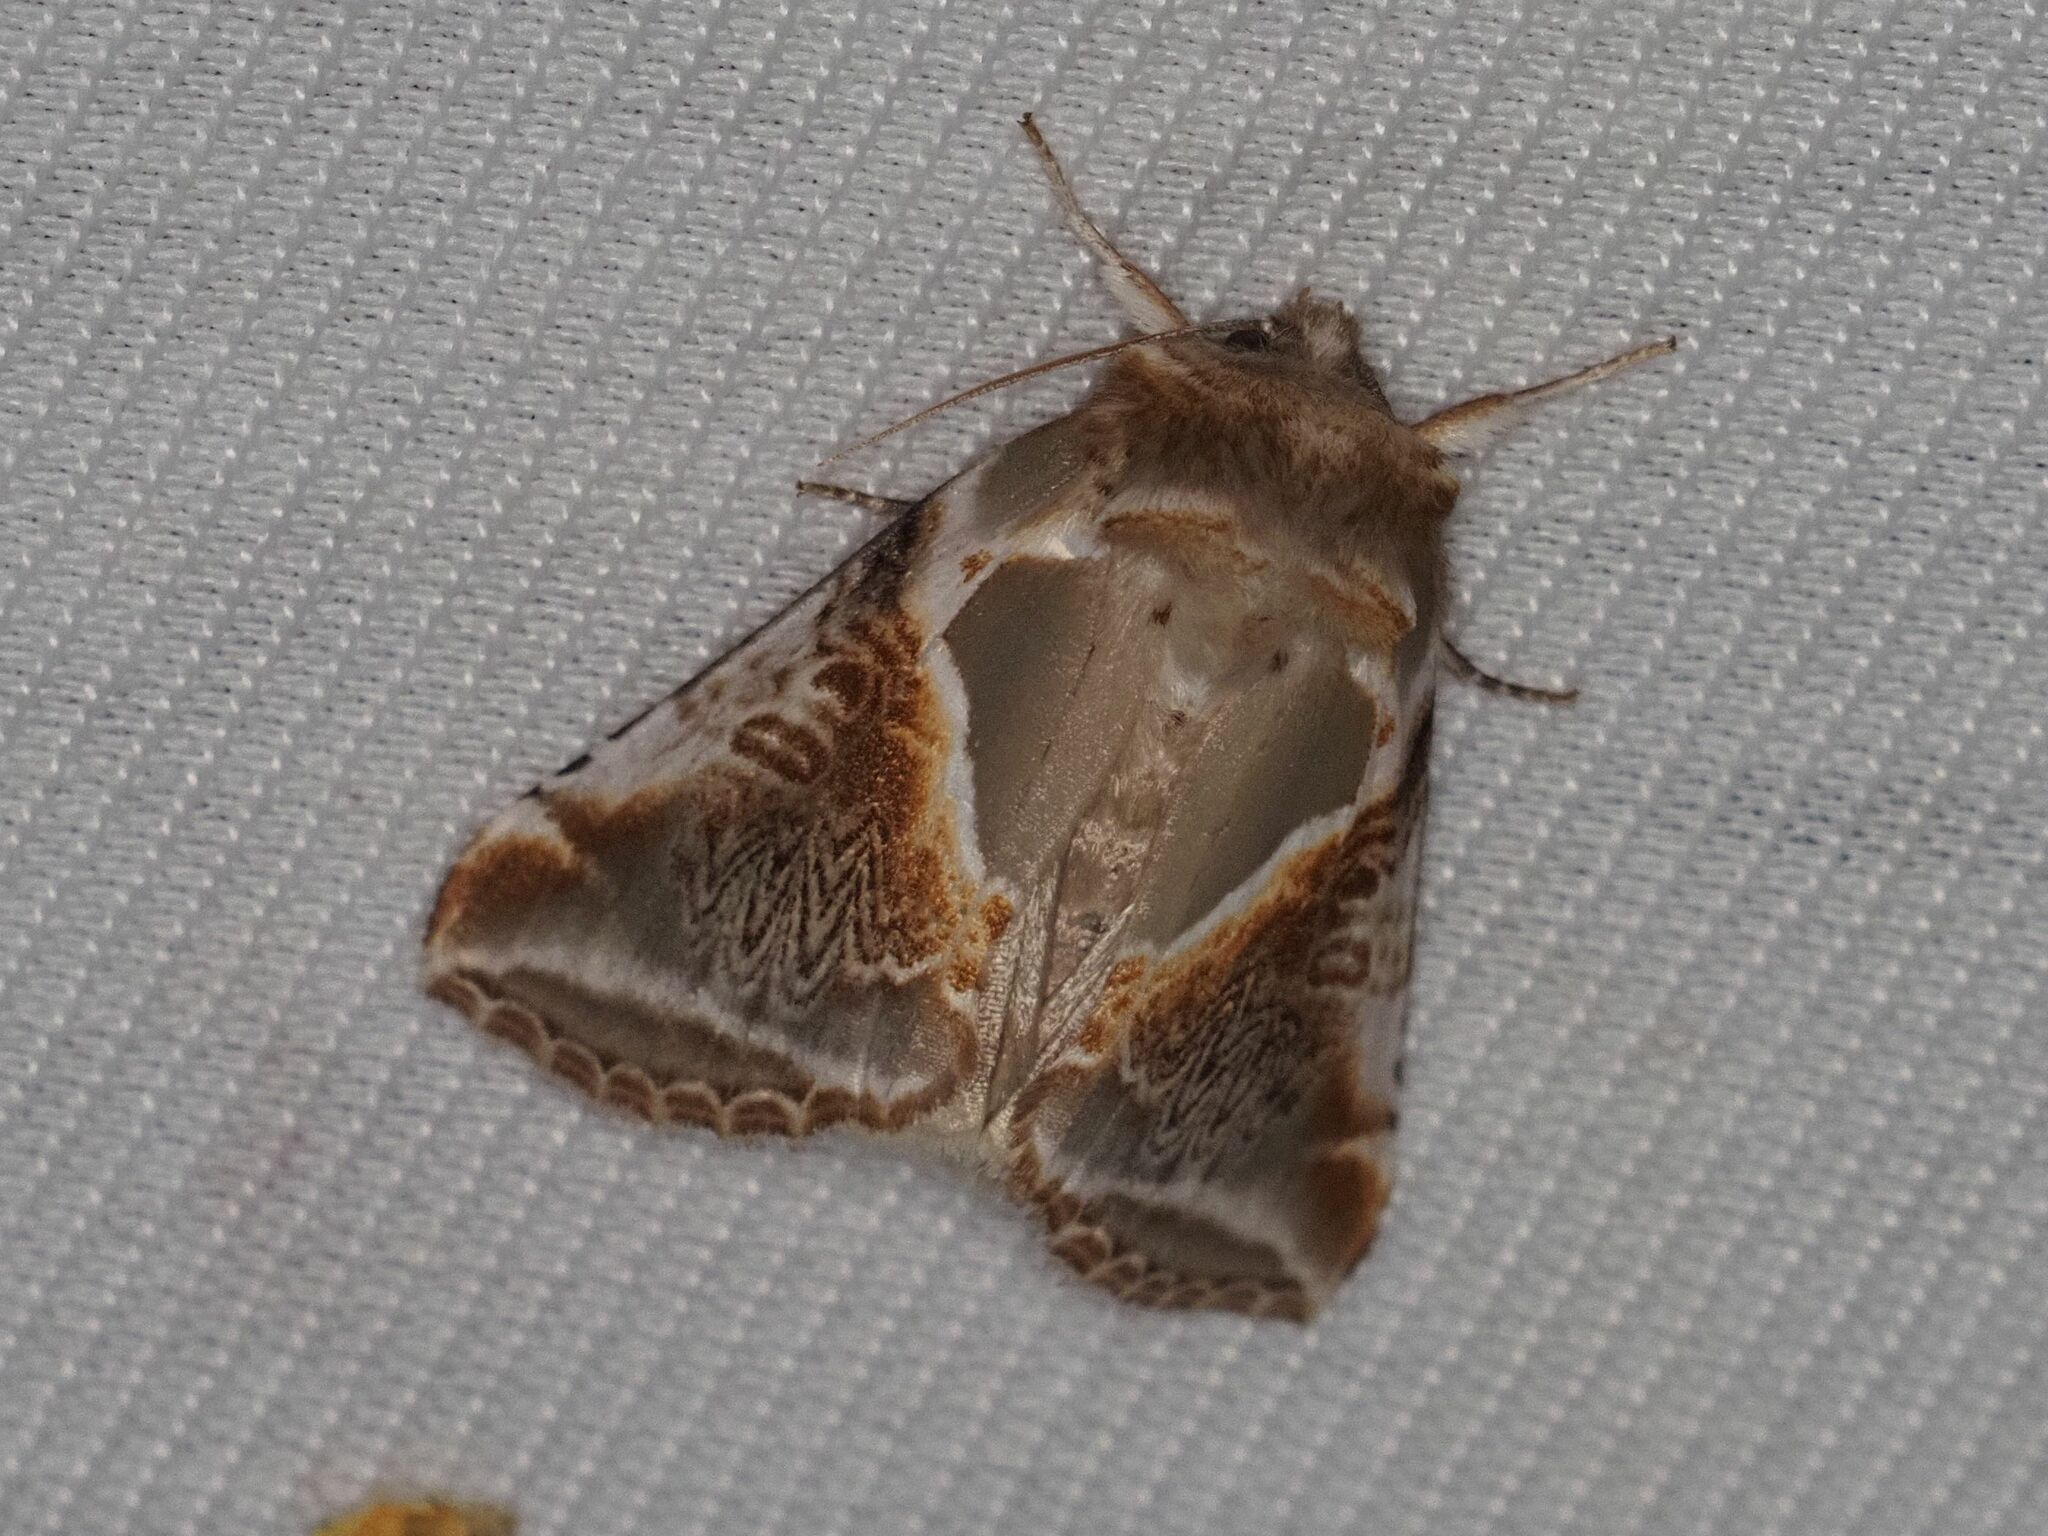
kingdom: Animalia
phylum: Arthropoda
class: Insecta
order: Lepidoptera
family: Drepanidae
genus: Habrosyne
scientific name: Habrosyne pyritoides
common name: Buff arches
